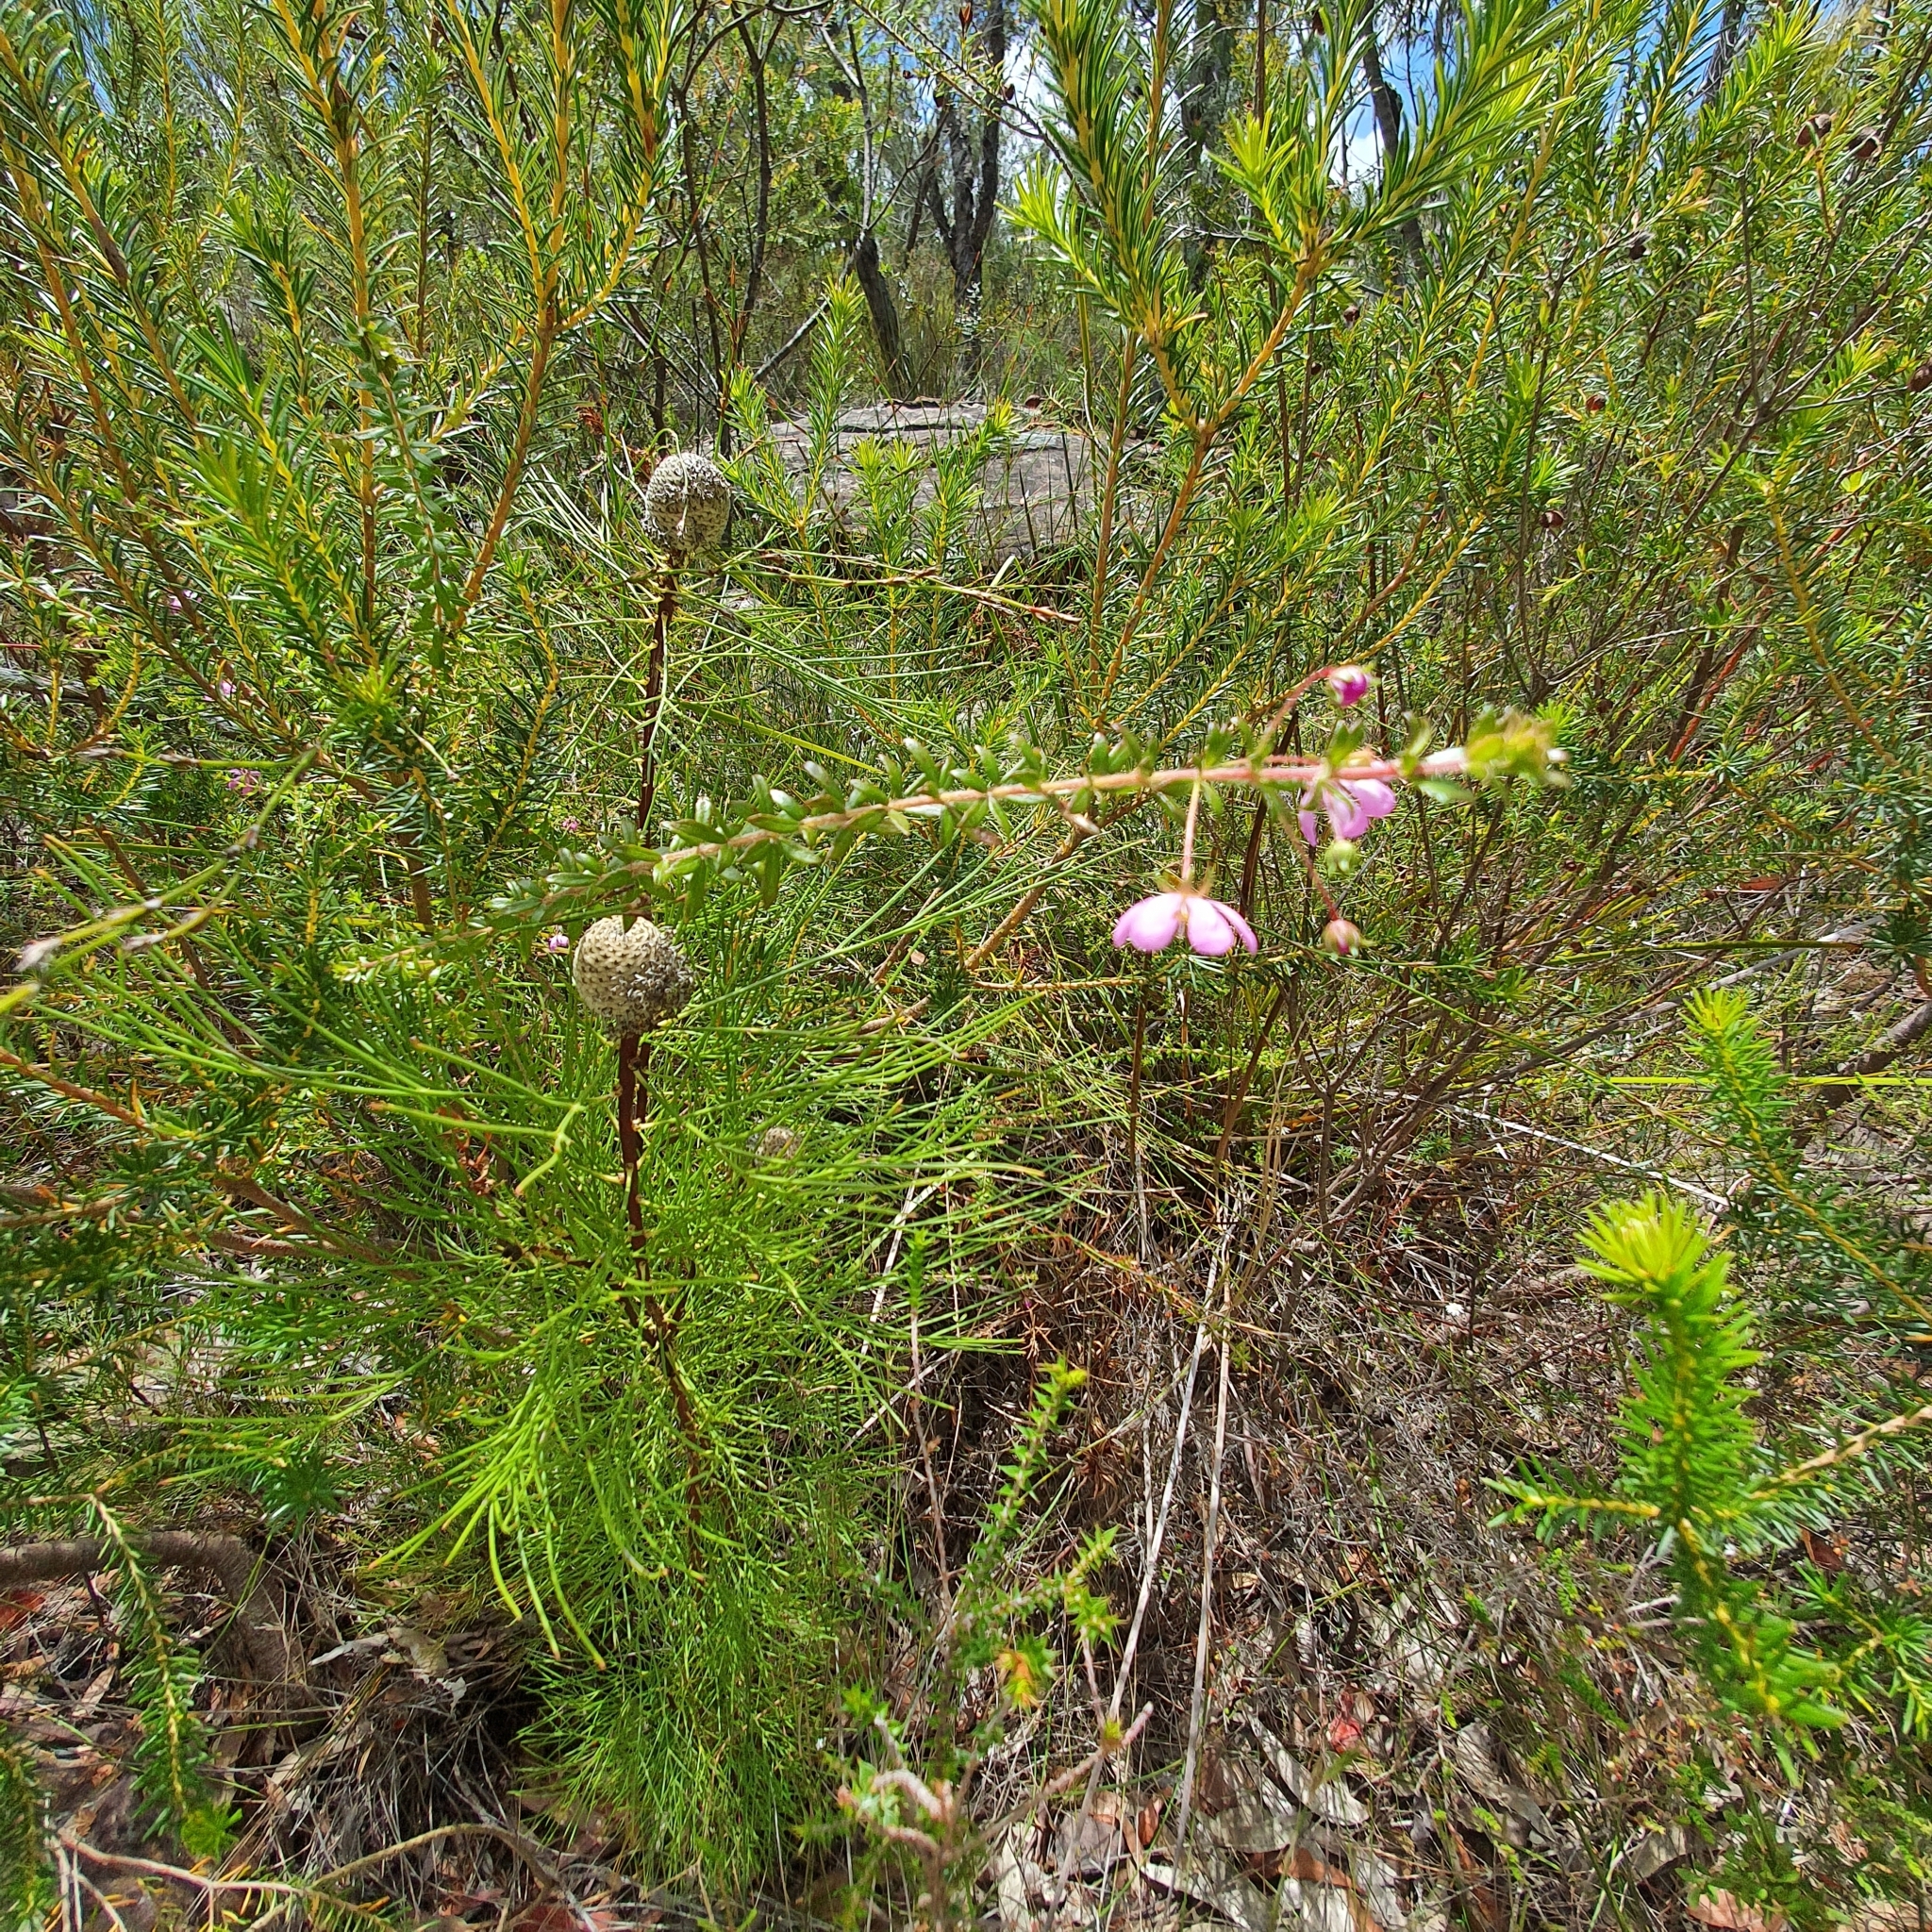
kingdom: Plantae
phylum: Tracheophyta
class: Magnoliopsida
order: Oxalidales
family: Cunoniaceae
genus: Bauera
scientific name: Bauera rubioides
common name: River-rose
